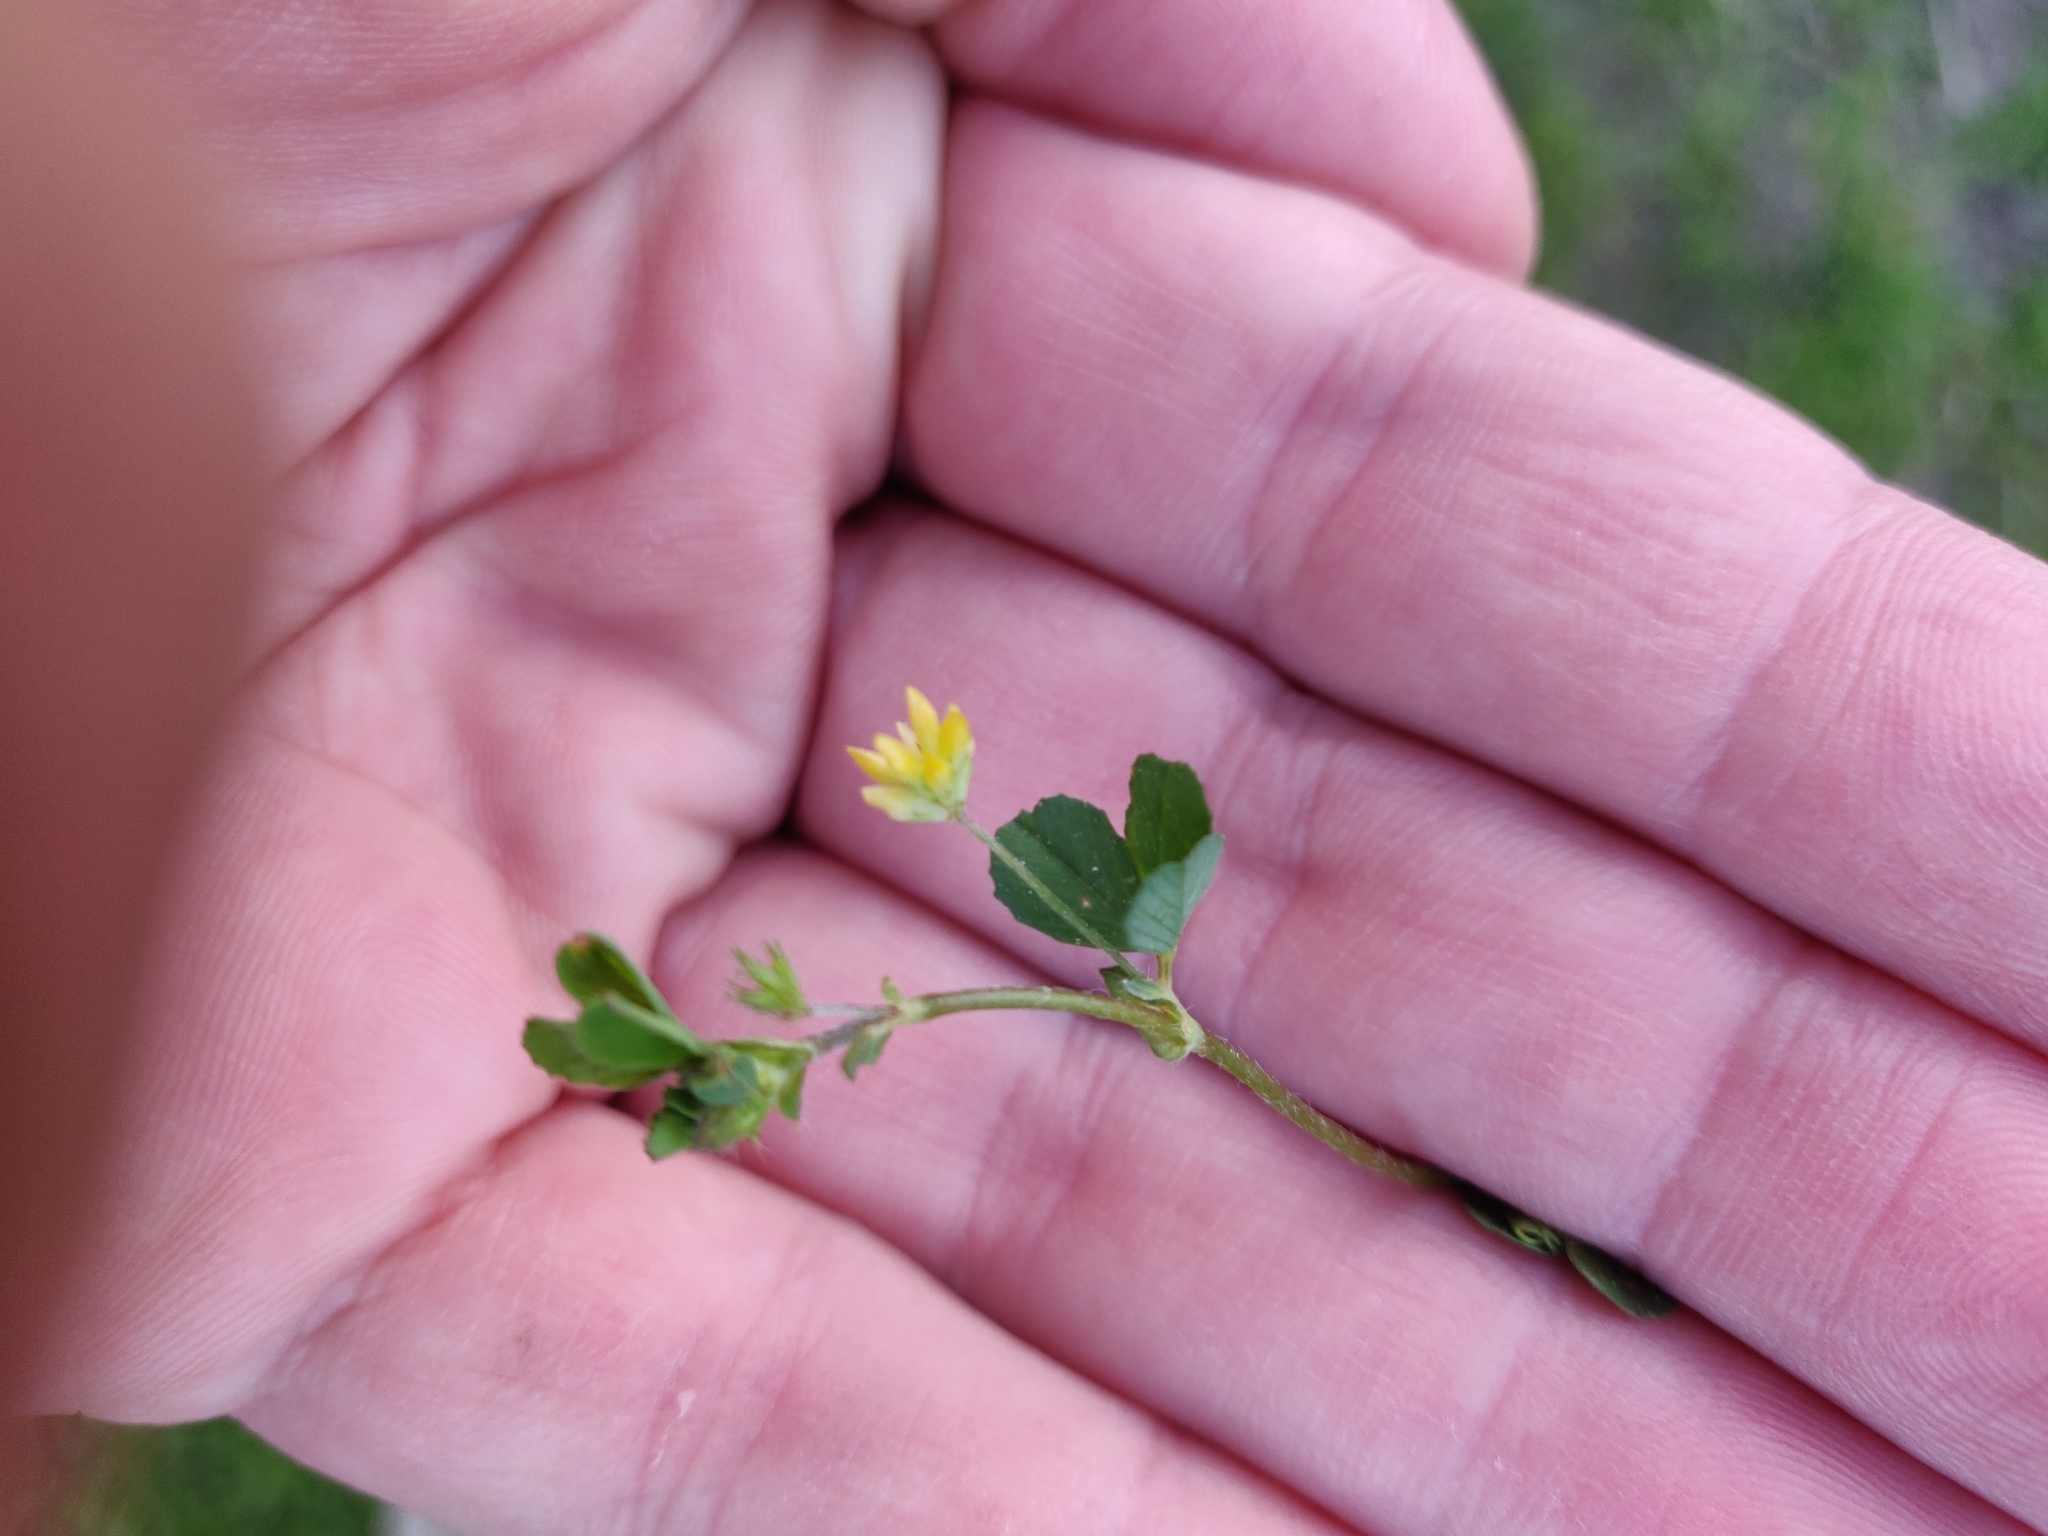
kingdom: Plantae
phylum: Tracheophyta
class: Magnoliopsida
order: Fabales
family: Fabaceae
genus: Trifolium
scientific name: Trifolium dubium
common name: Suckling clover
